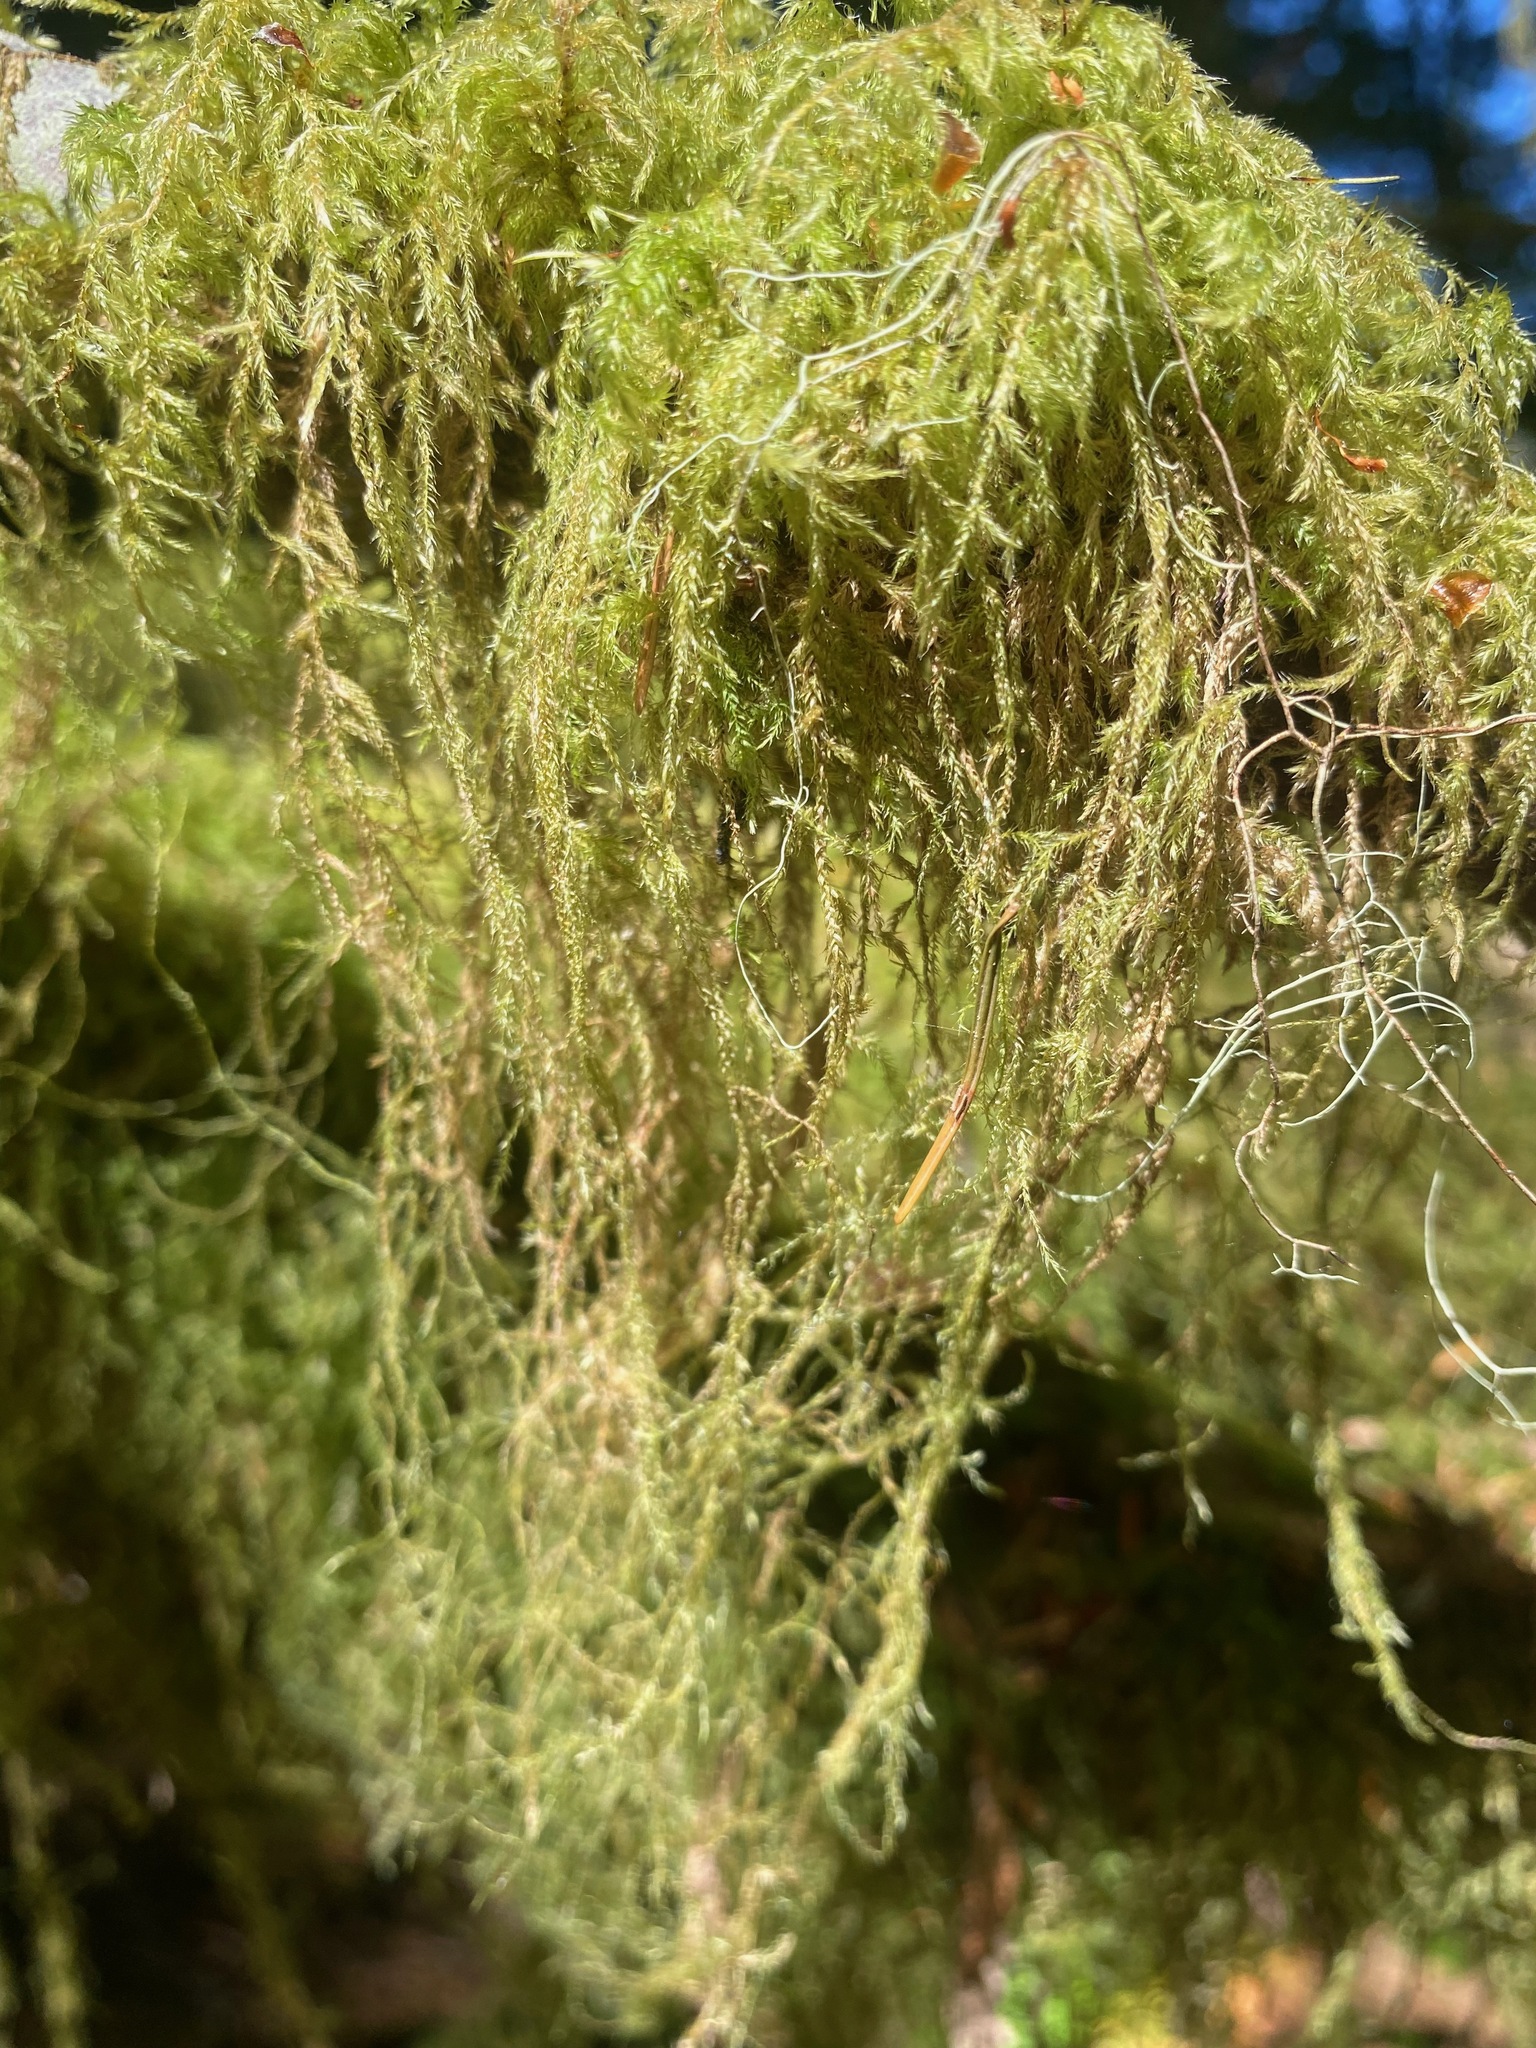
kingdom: Plantae
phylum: Bryophyta
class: Bryopsida
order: Hypnales
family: Lembophyllaceae
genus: Pseudisothecium
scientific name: Pseudisothecium stoloniferum
